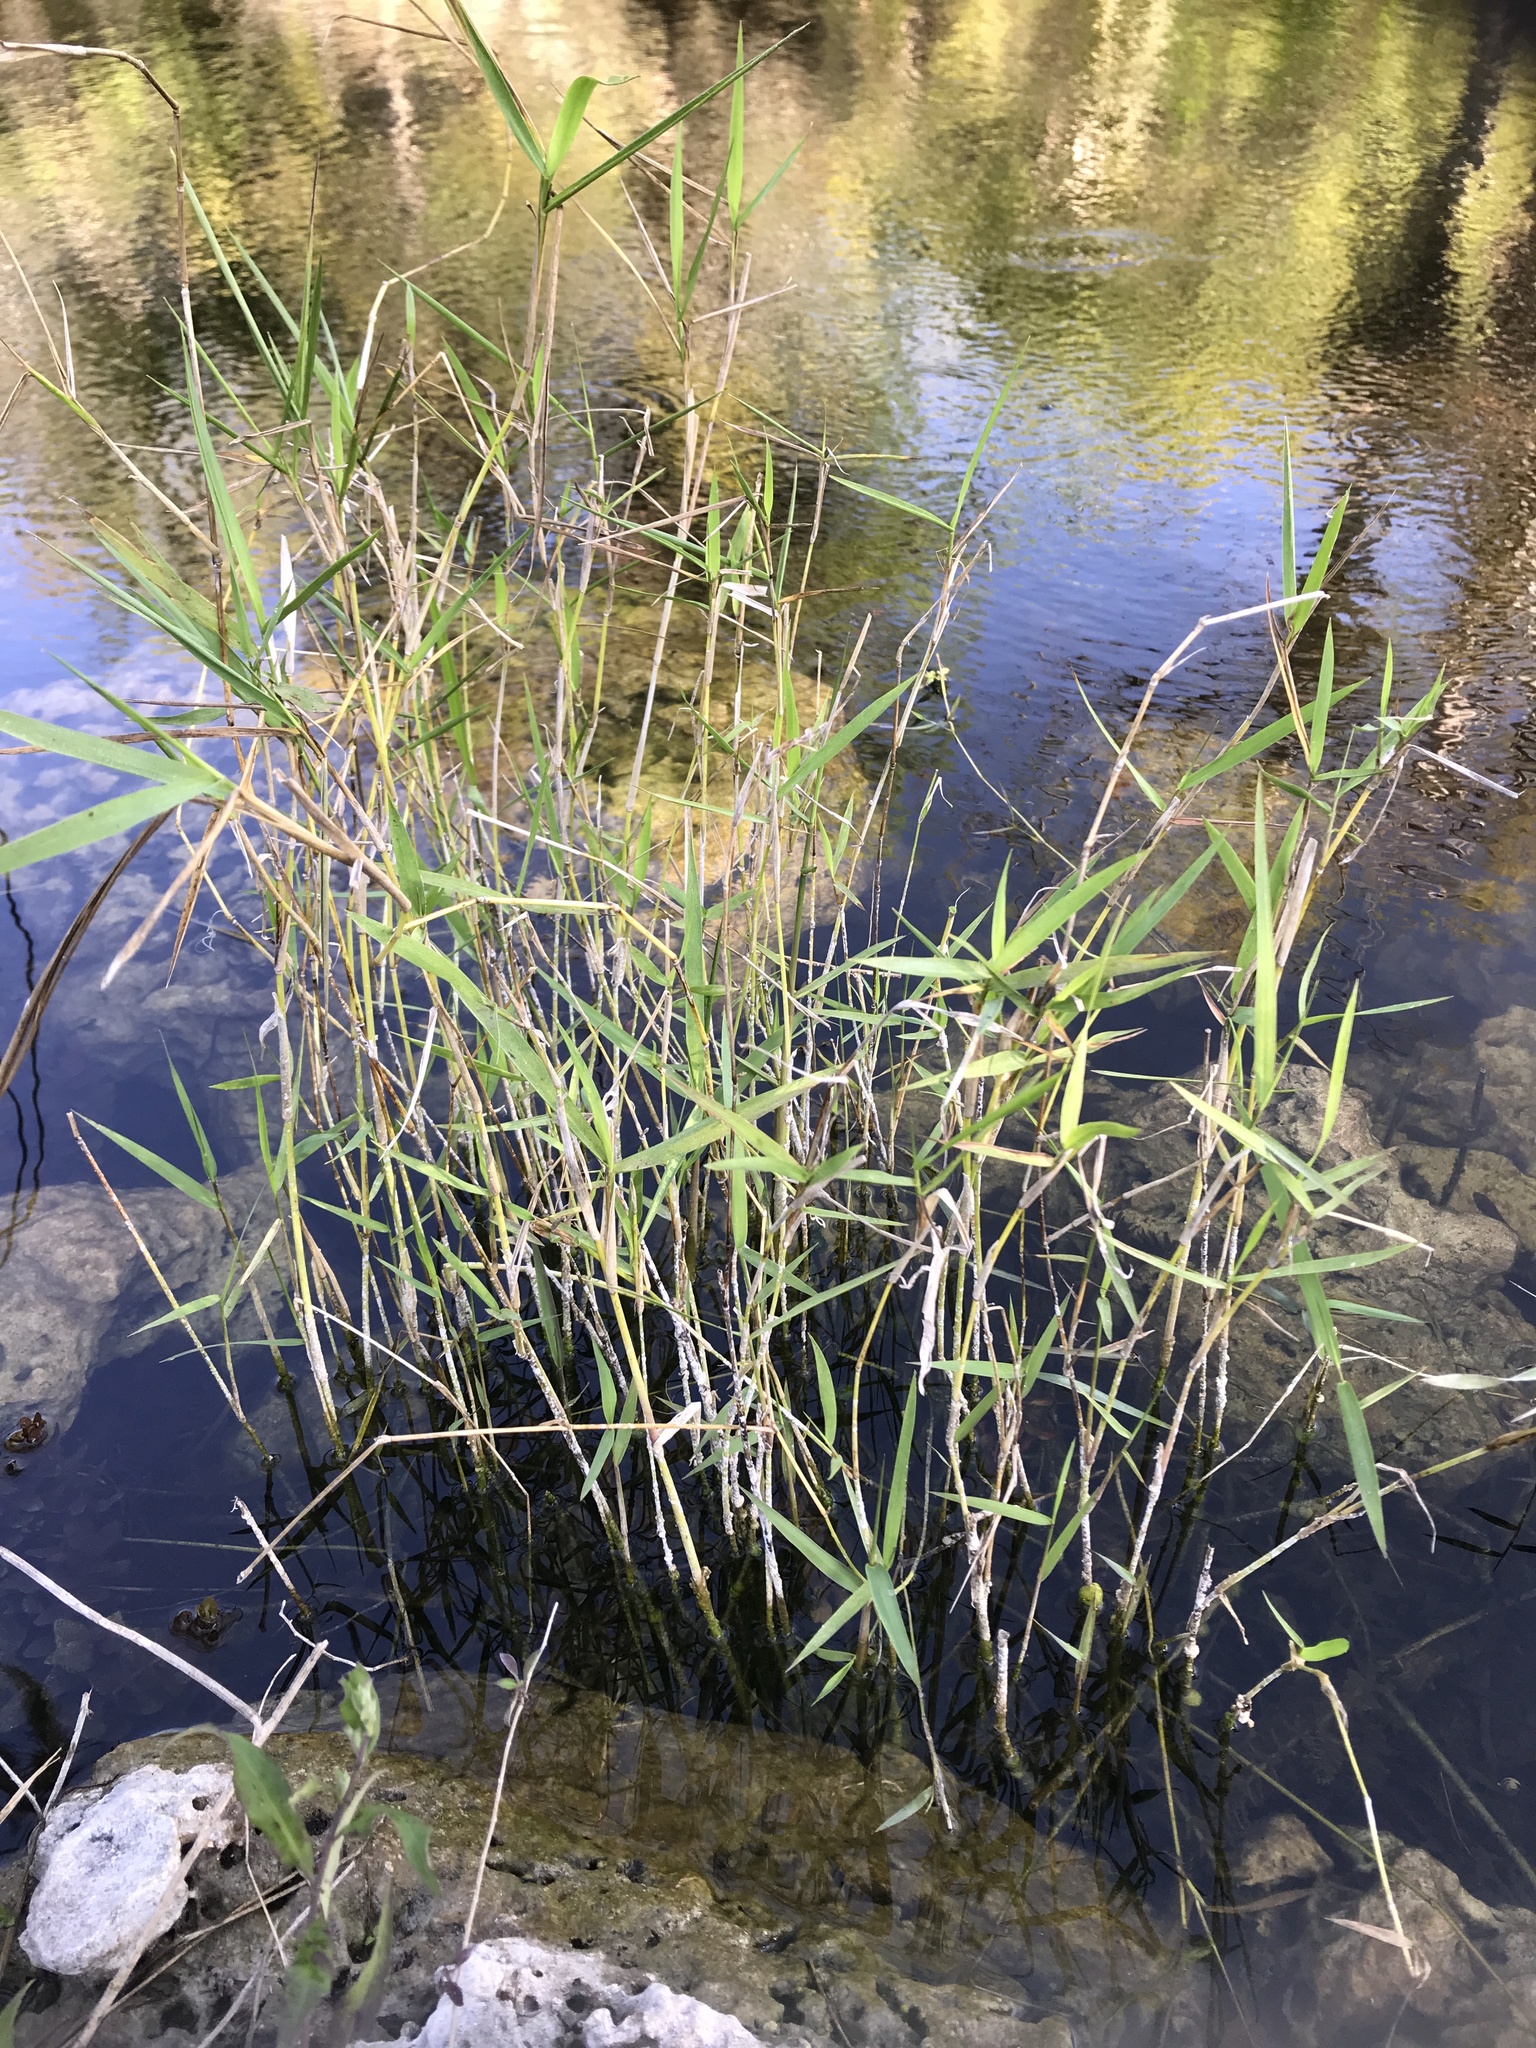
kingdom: Plantae
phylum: Tracheophyta
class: Liliopsida
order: Poales
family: Poaceae
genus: Panicum
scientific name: Panicum hemitomon
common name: Maidencane
